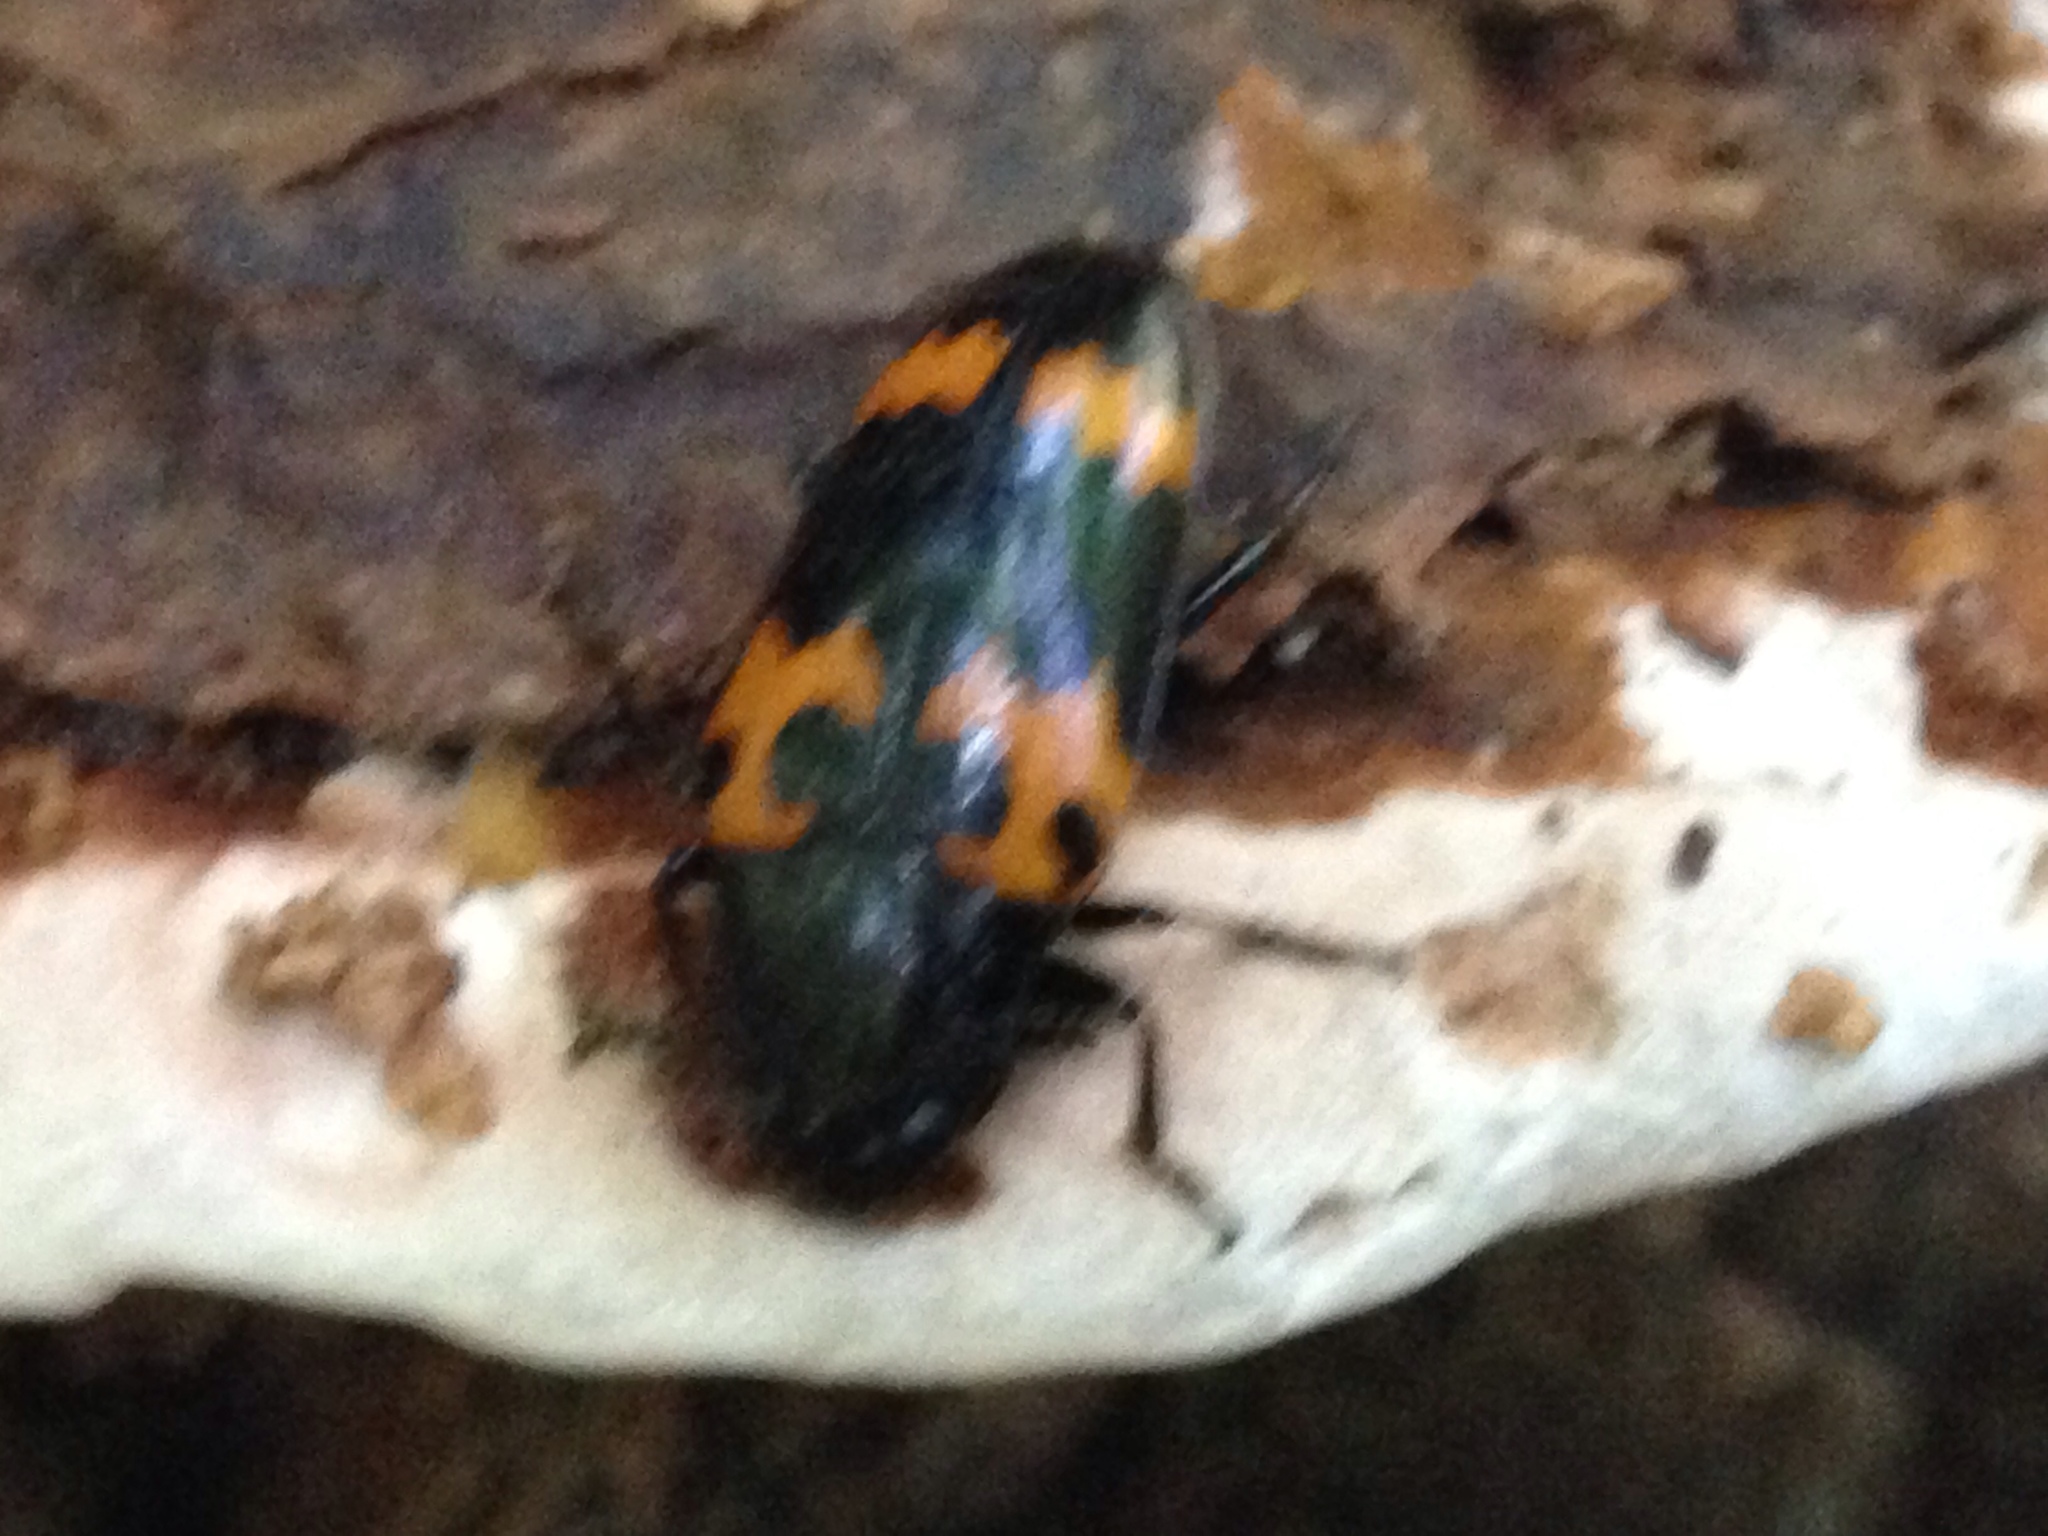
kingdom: Animalia
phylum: Arthropoda
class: Insecta
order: Coleoptera
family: Erotylidae
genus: Megalodacne
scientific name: Megalodacne heros
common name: Pleasing fungus beetle
